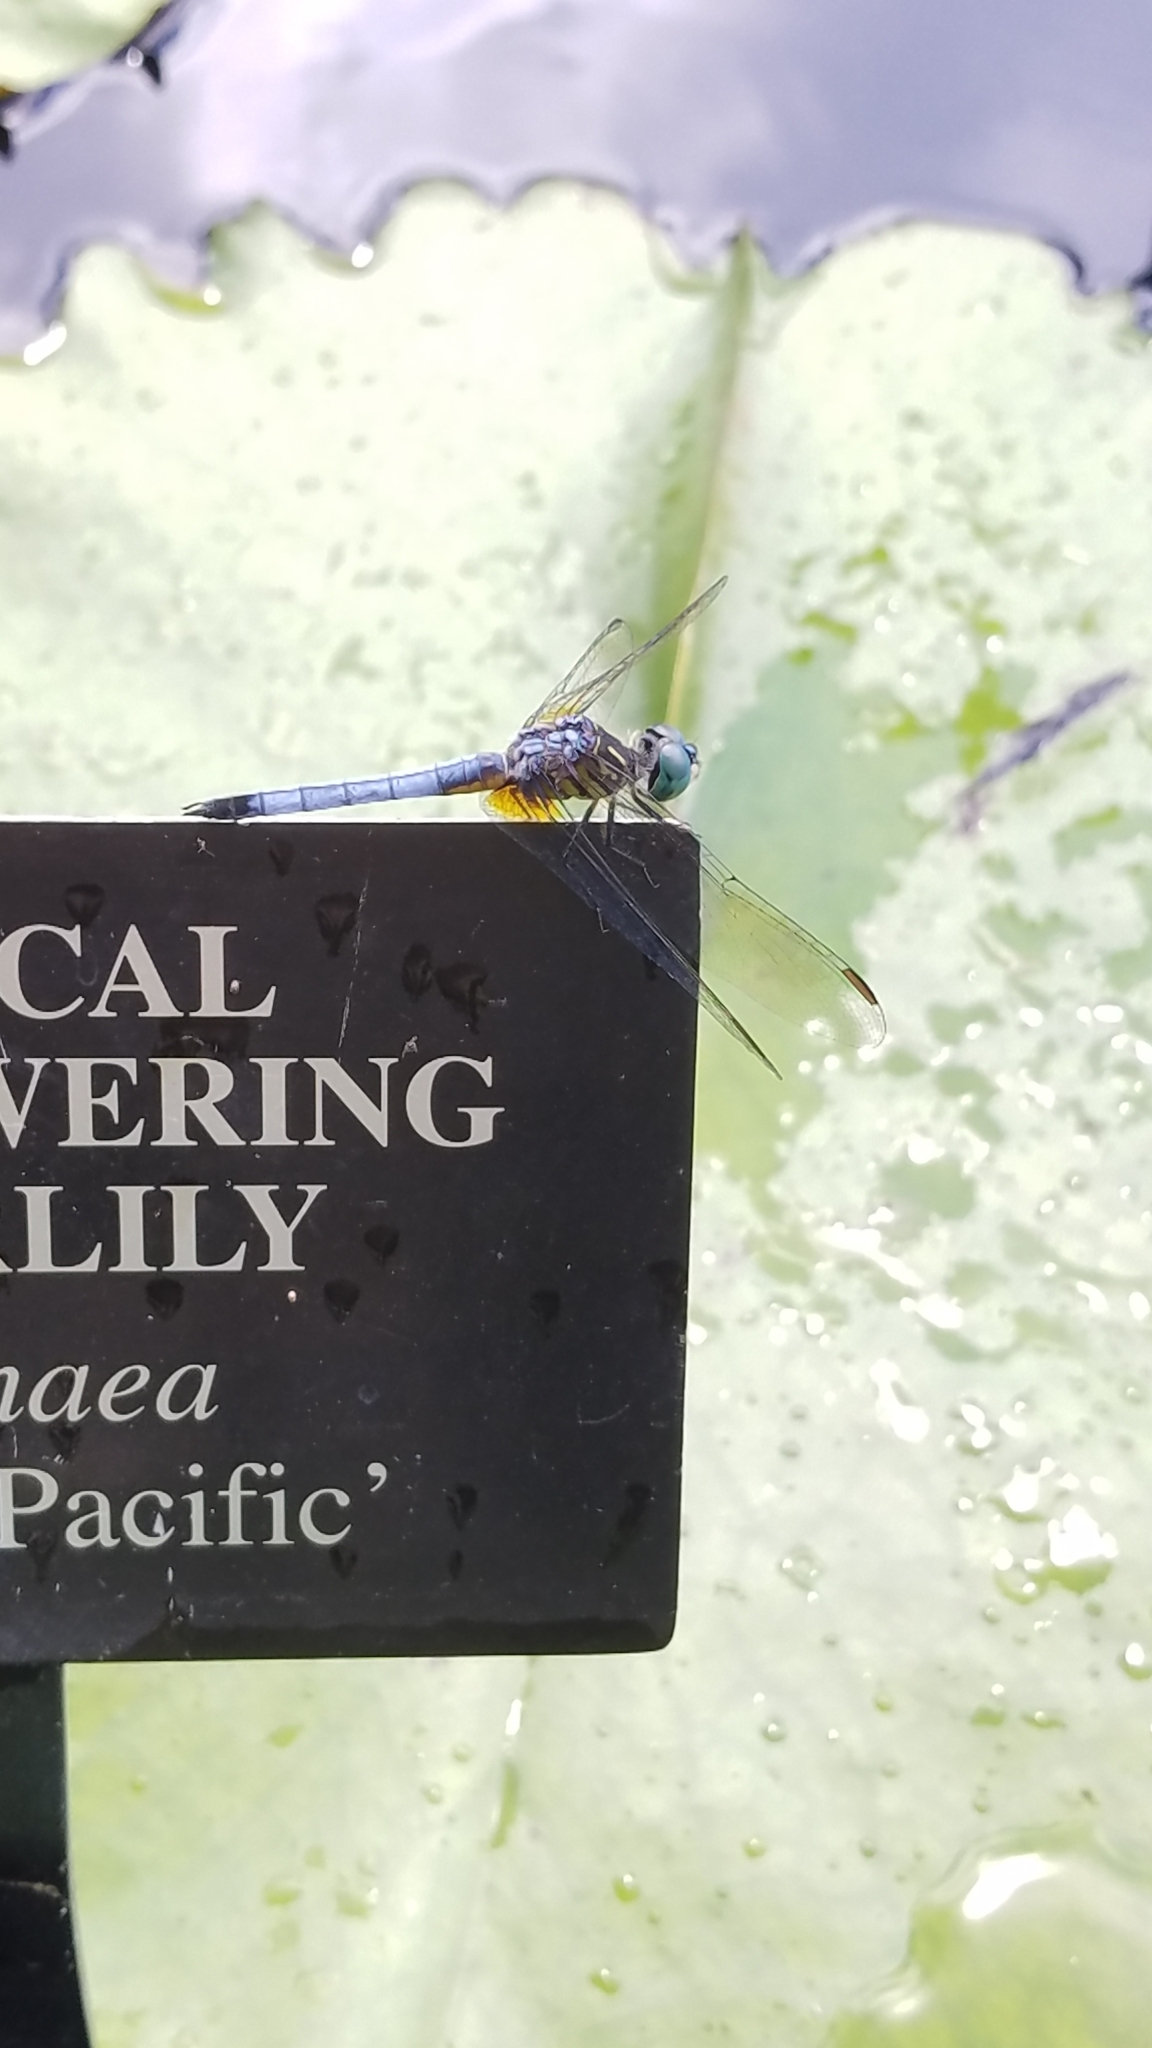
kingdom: Animalia
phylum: Arthropoda
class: Insecta
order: Odonata
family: Libellulidae
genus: Pachydiplax
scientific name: Pachydiplax longipennis
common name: Blue dasher
